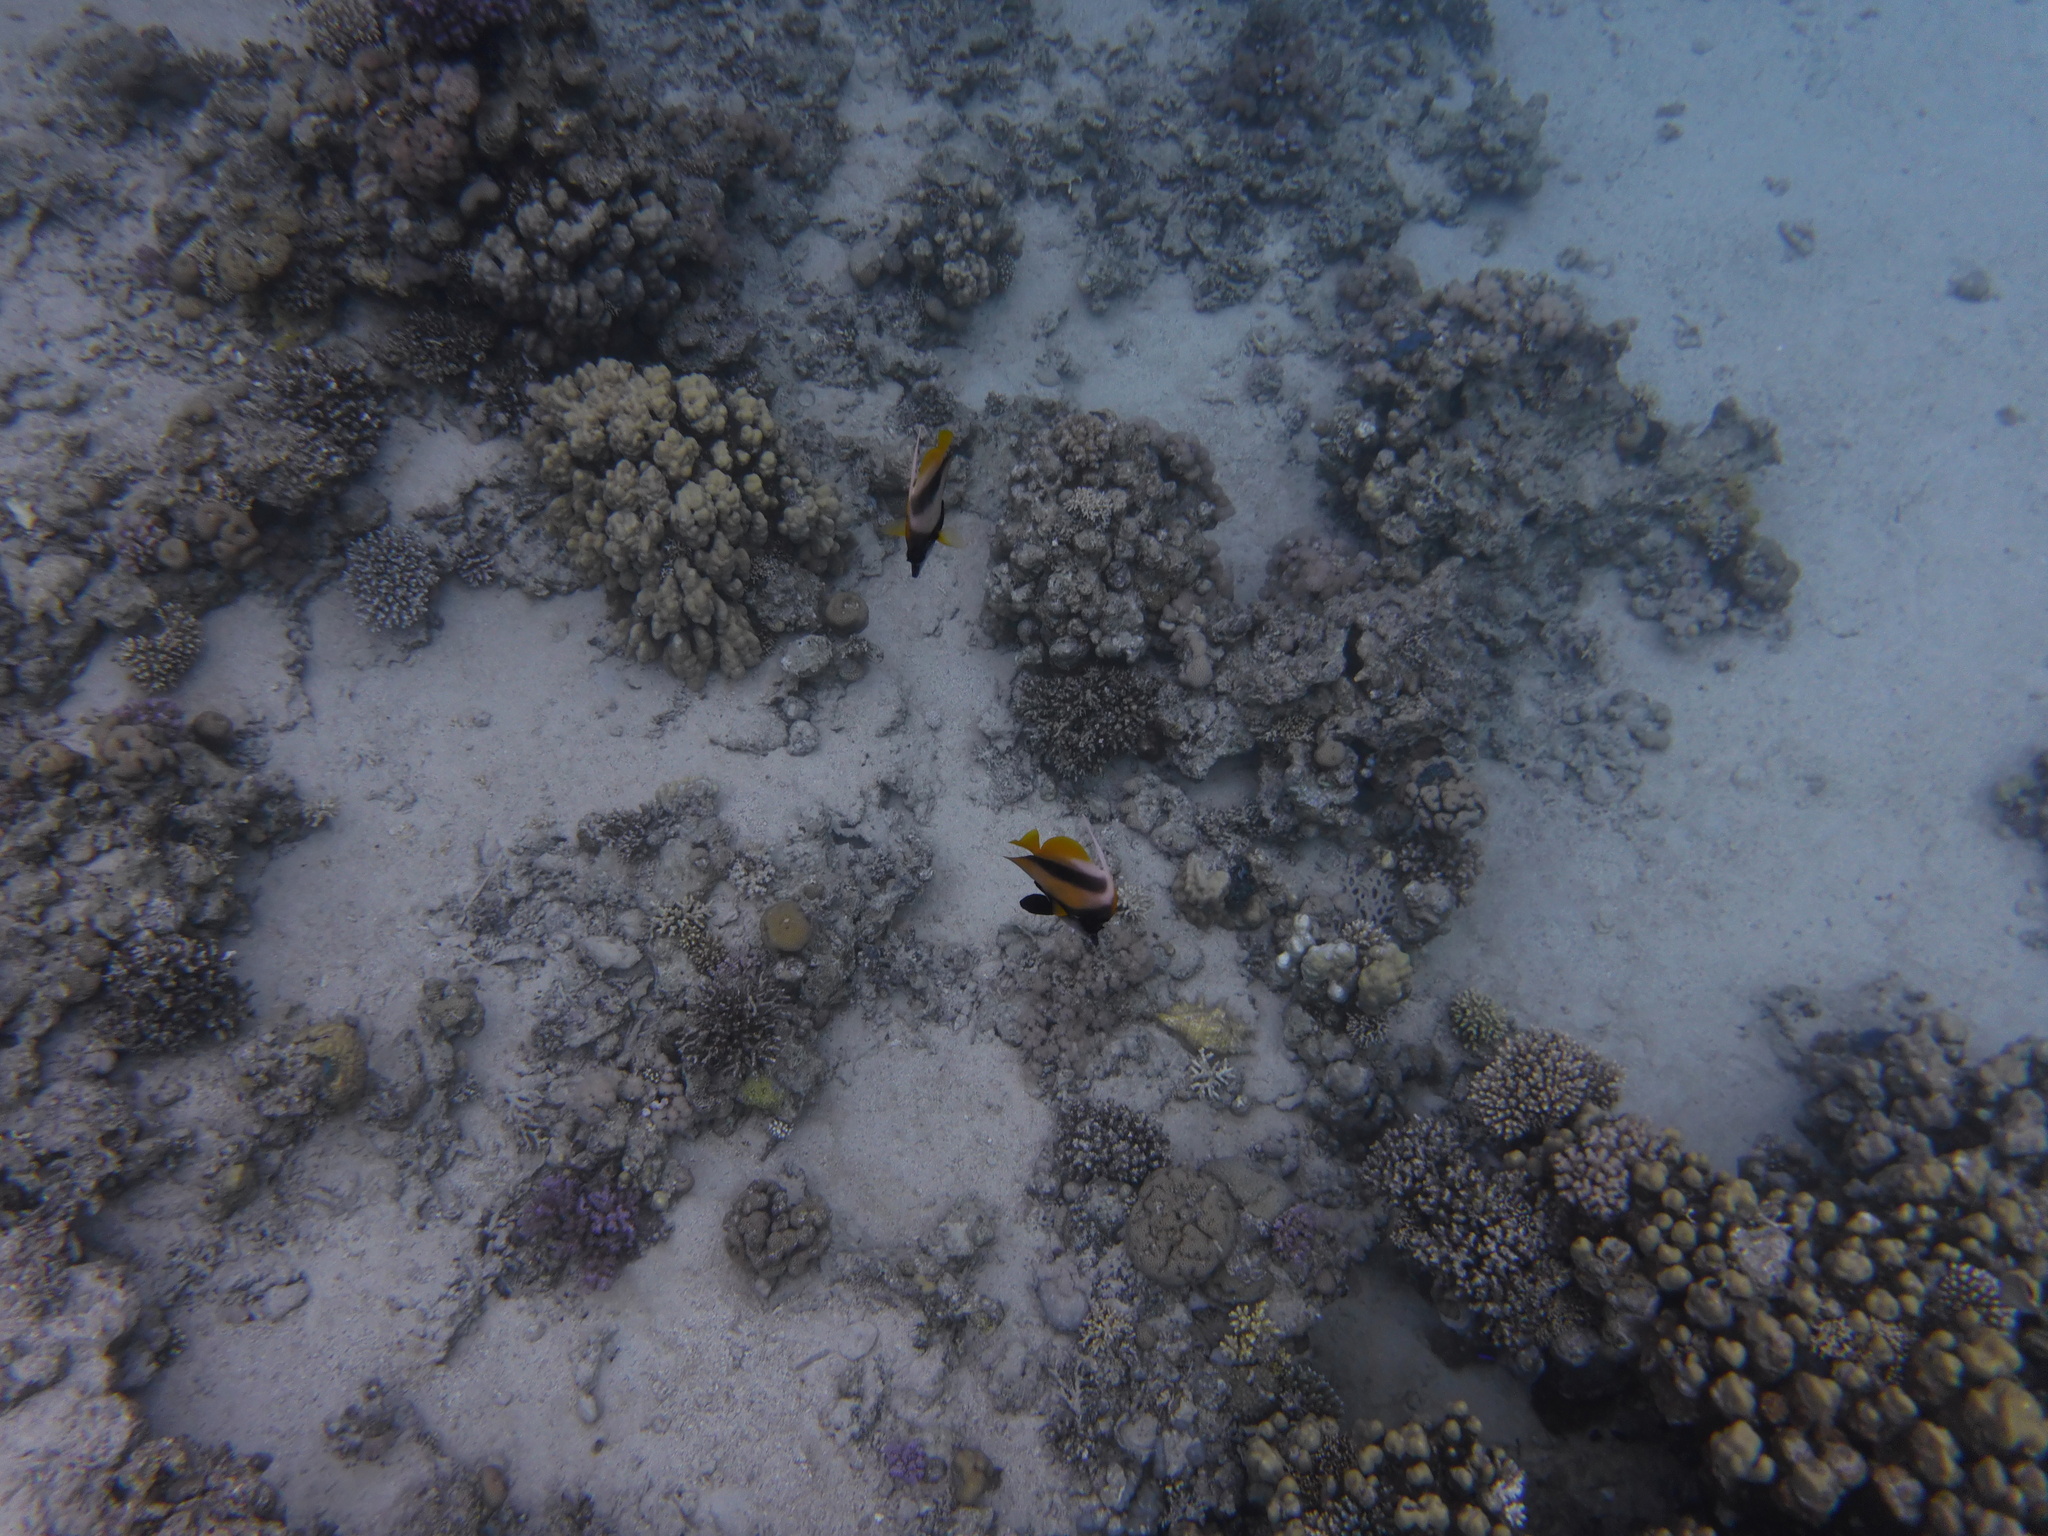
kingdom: Animalia
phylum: Chordata
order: Perciformes
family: Chaetodontidae
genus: Heniochus
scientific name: Heniochus intermedius
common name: Red sea bannerfish
